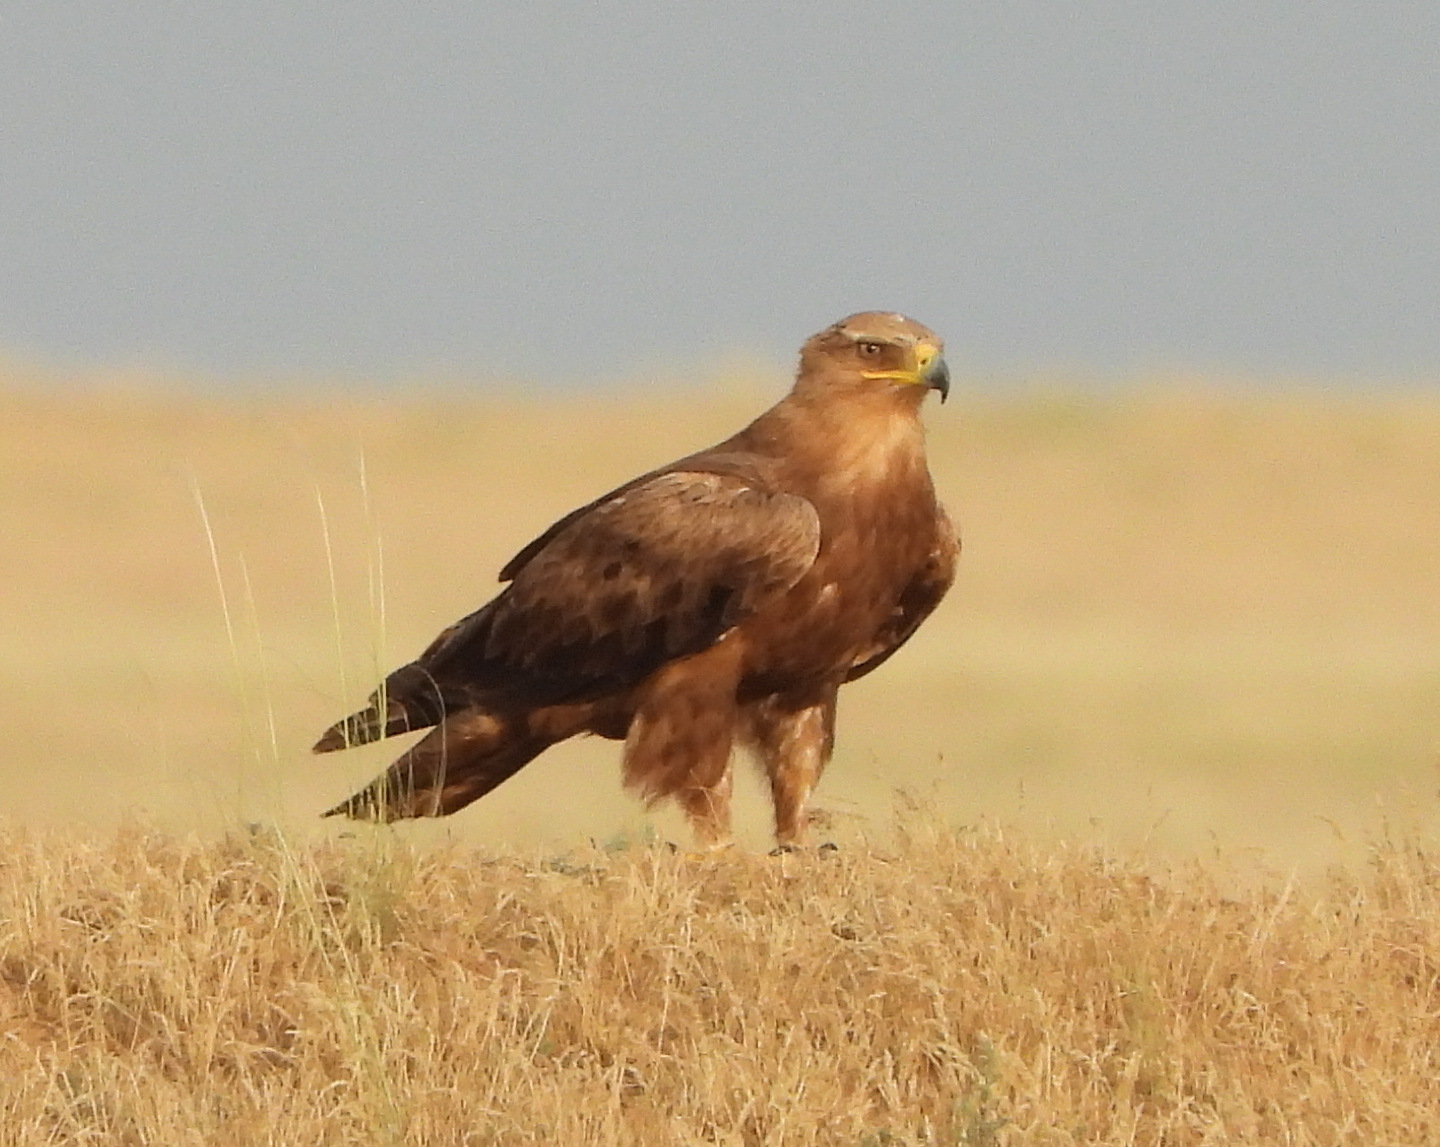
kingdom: Animalia
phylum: Chordata
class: Aves
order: Accipitriformes
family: Accipitridae
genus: Aquila
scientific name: Aquila nipalensis
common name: Steppe eagle
